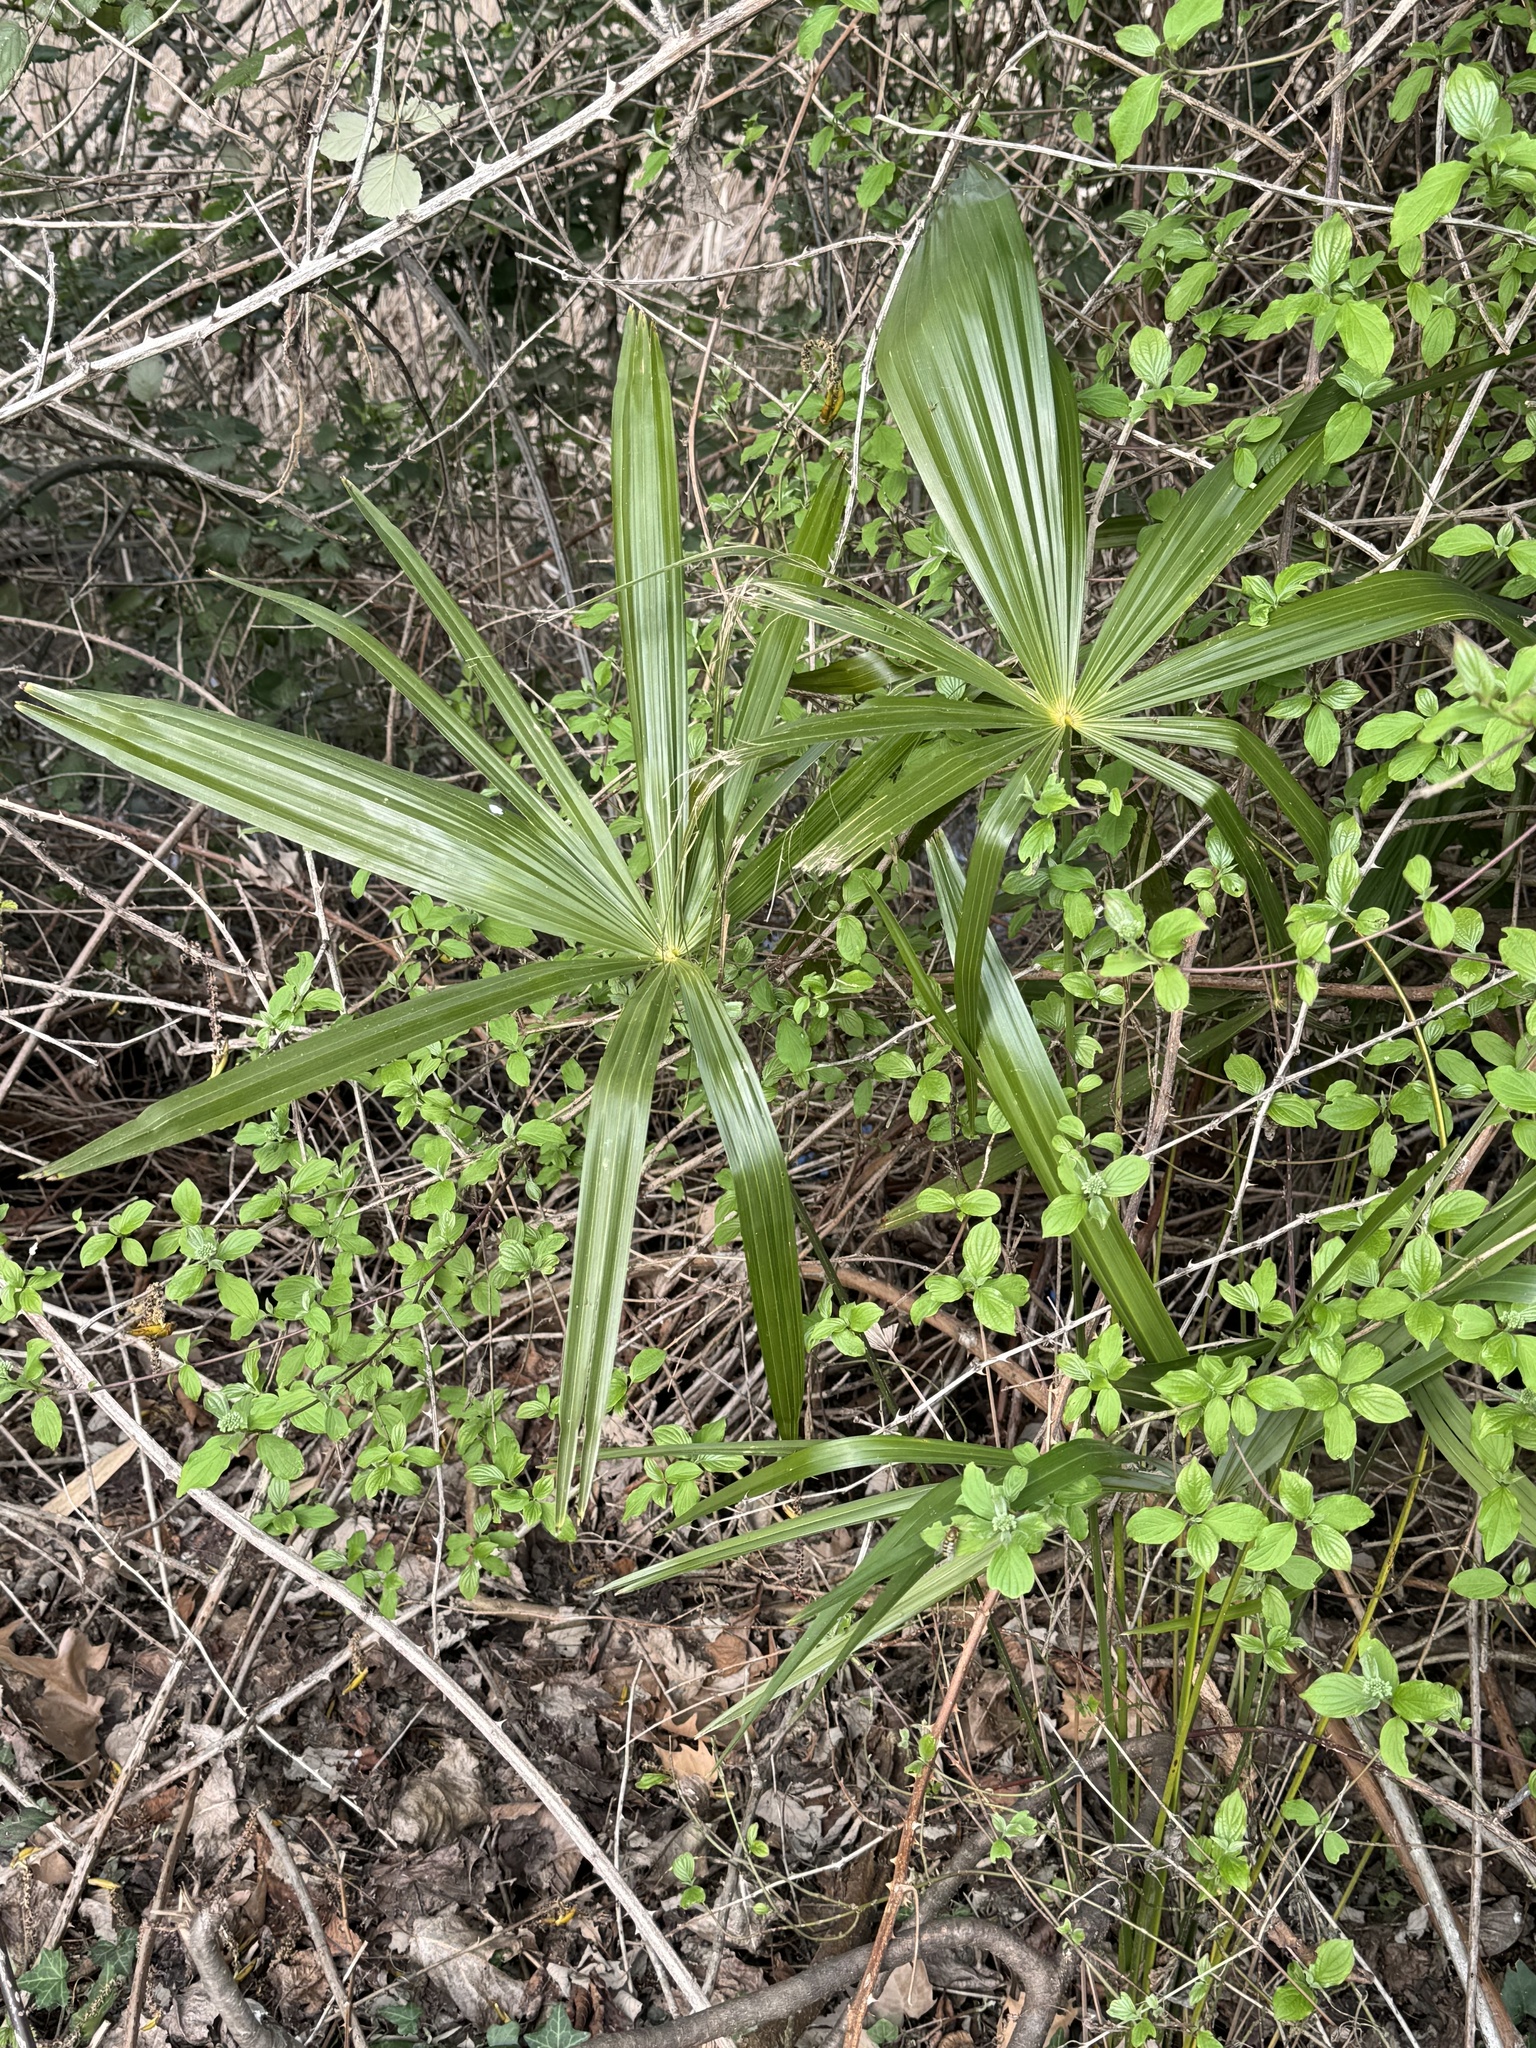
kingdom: Plantae
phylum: Tracheophyta
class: Liliopsida
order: Arecales
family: Arecaceae
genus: Trachycarpus
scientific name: Trachycarpus fortunei
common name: Chusan palm
